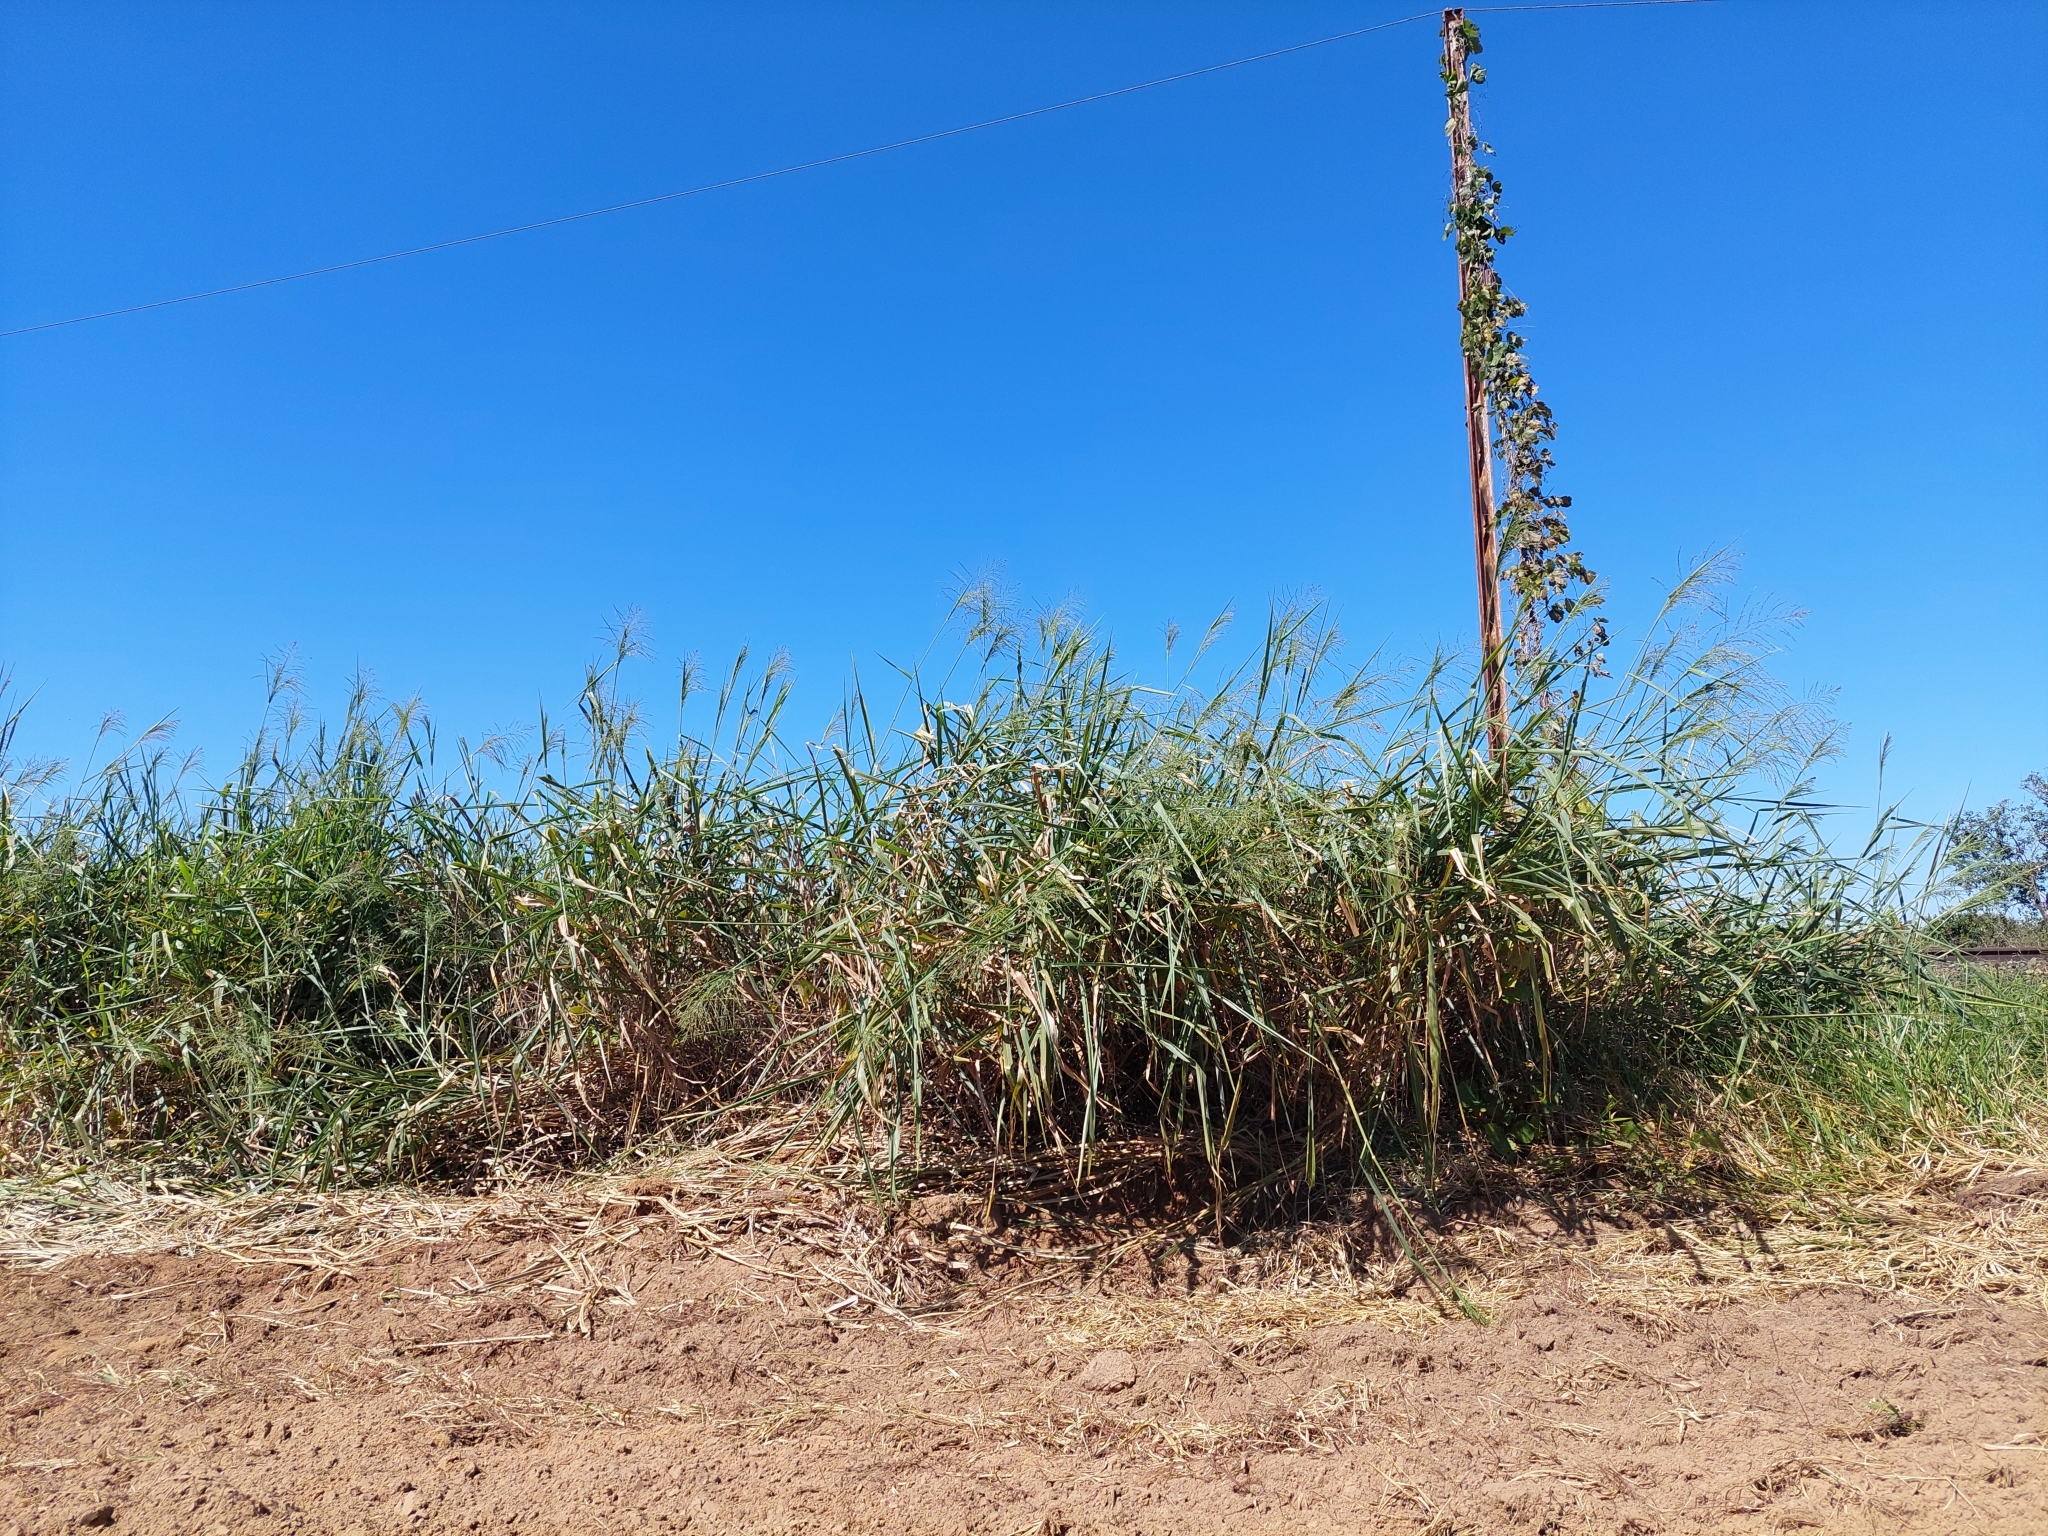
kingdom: Plantae
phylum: Tracheophyta
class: Liliopsida
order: Poales
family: Poaceae
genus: Megathyrsus
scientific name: Megathyrsus maximus
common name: Guineagrass
